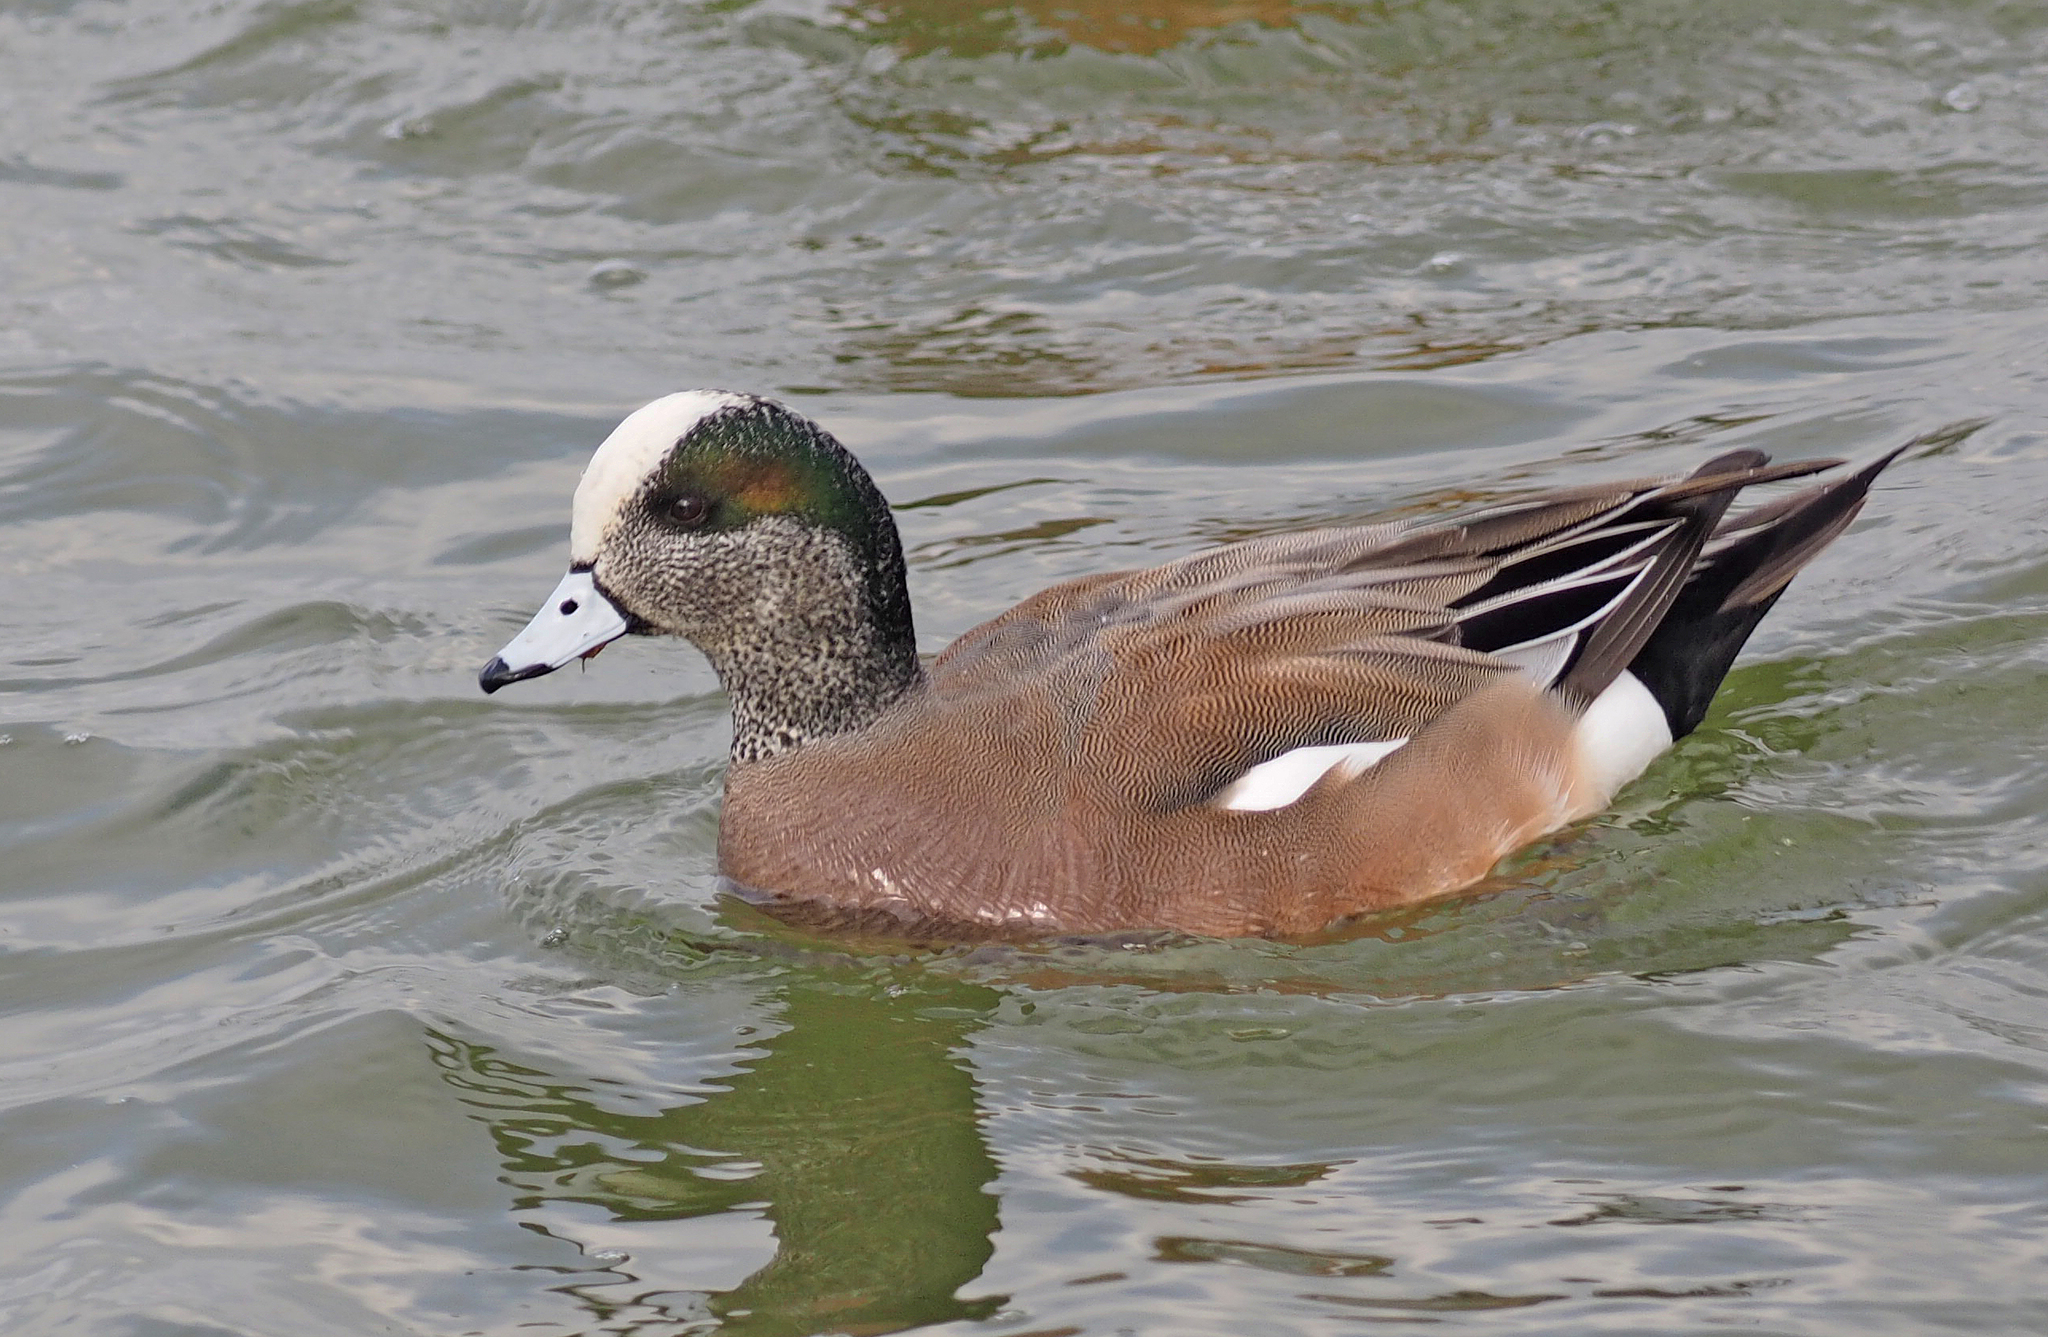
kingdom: Animalia
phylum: Chordata
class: Aves
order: Anseriformes
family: Anatidae
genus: Mareca
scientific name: Mareca americana
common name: American wigeon
